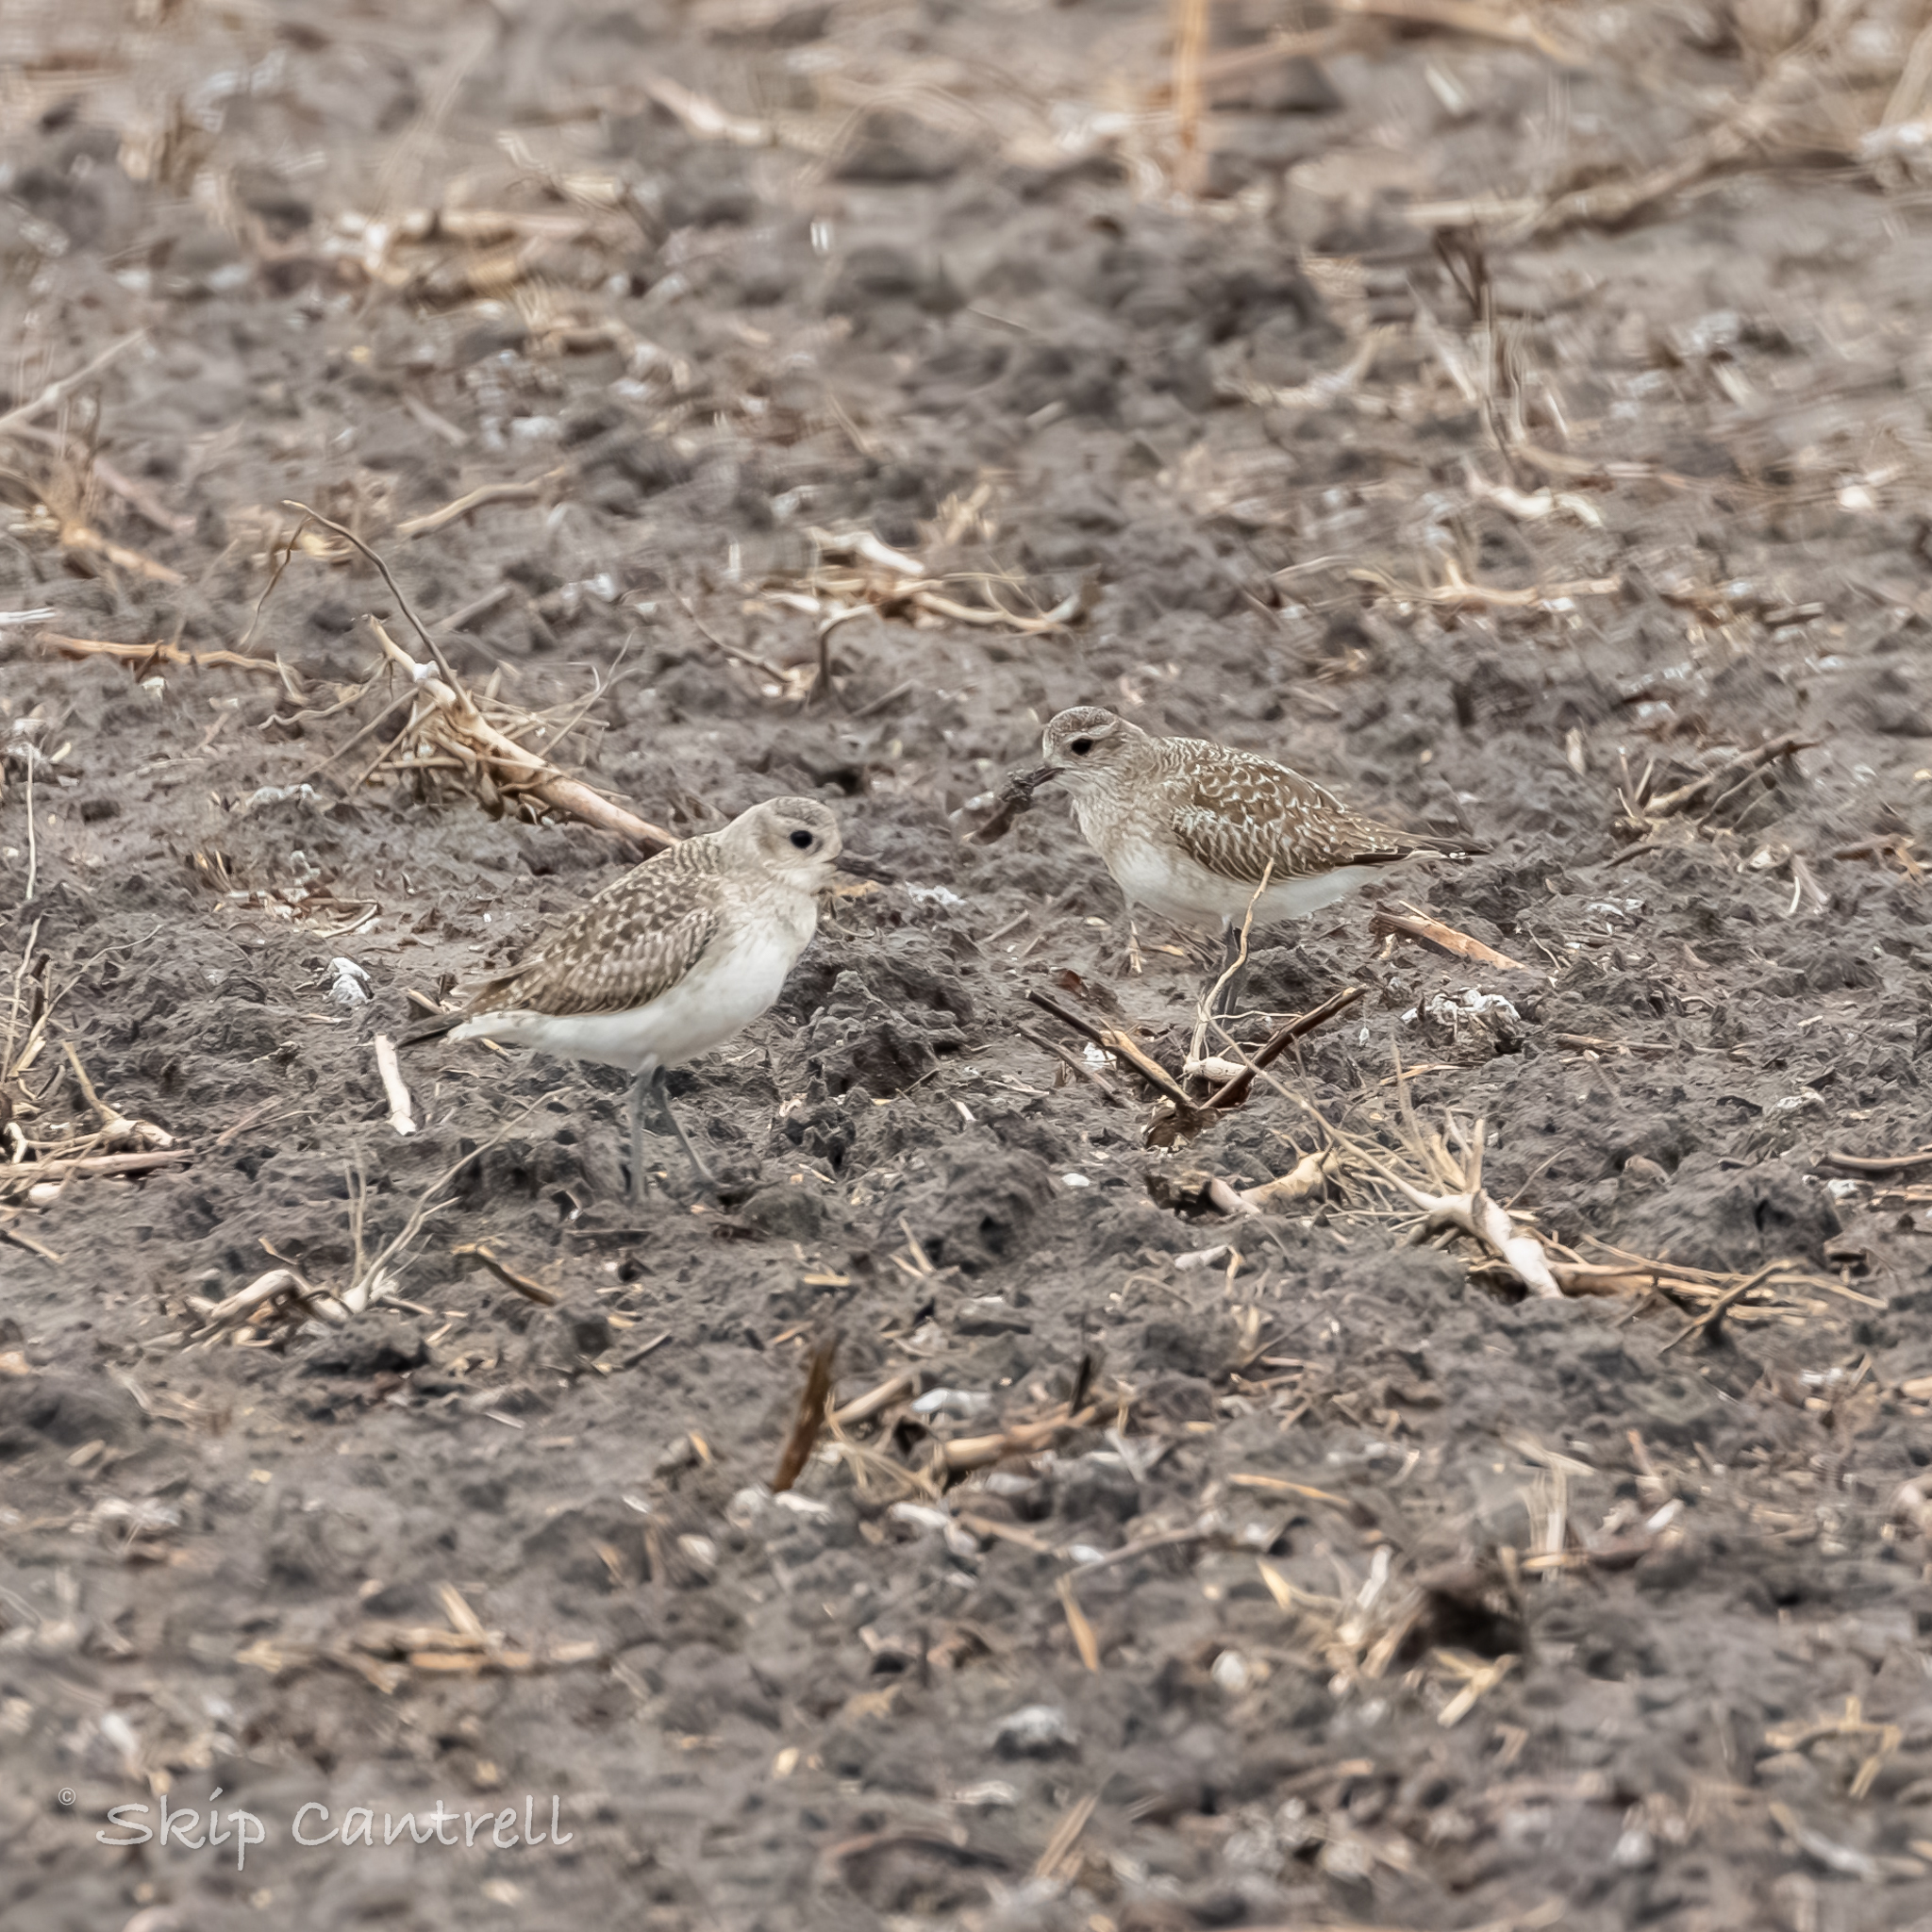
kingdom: Animalia
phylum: Chordata
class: Aves
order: Charadriiformes
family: Charadriidae
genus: Pluvialis
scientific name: Pluvialis squatarola
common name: Grey plover
